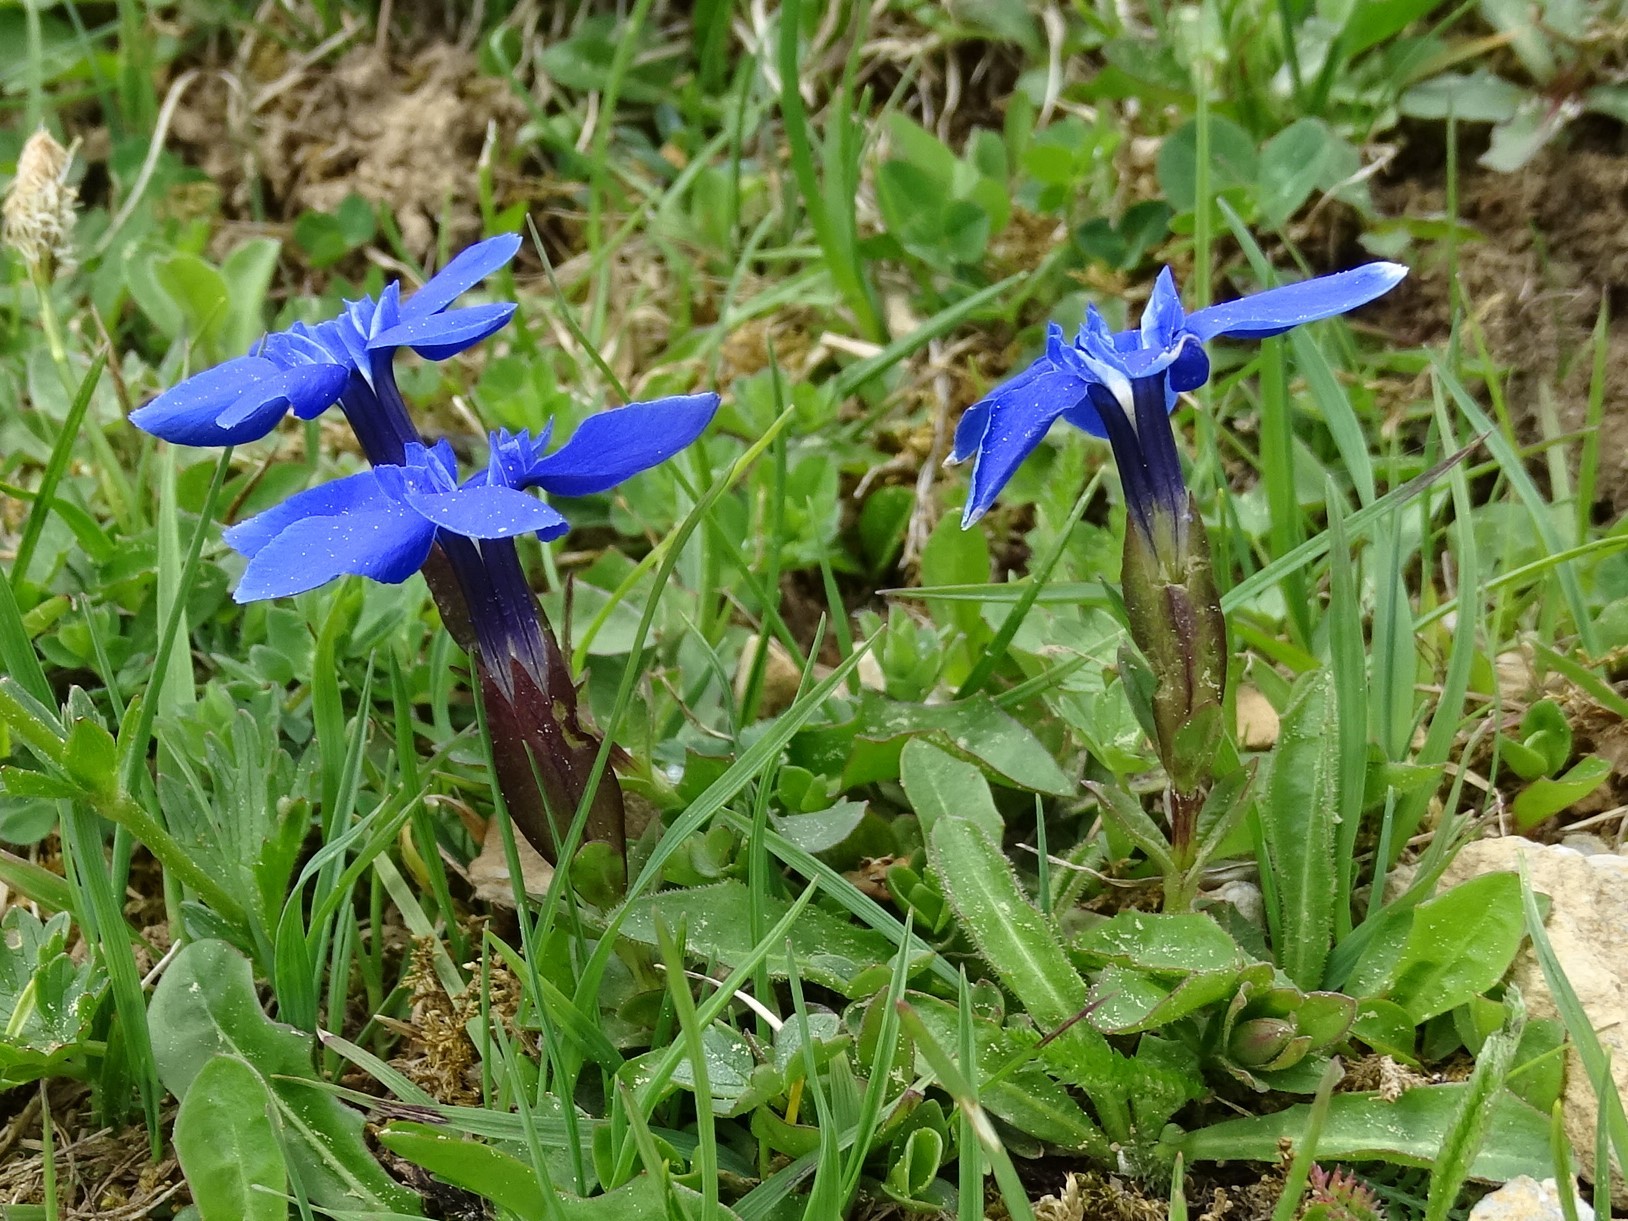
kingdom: Plantae
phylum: Tracheophyta
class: Magnoliopsida
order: Gentianales
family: Gentianaceae
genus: Gentiana
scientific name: Gentiana verna
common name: Spring gentian
